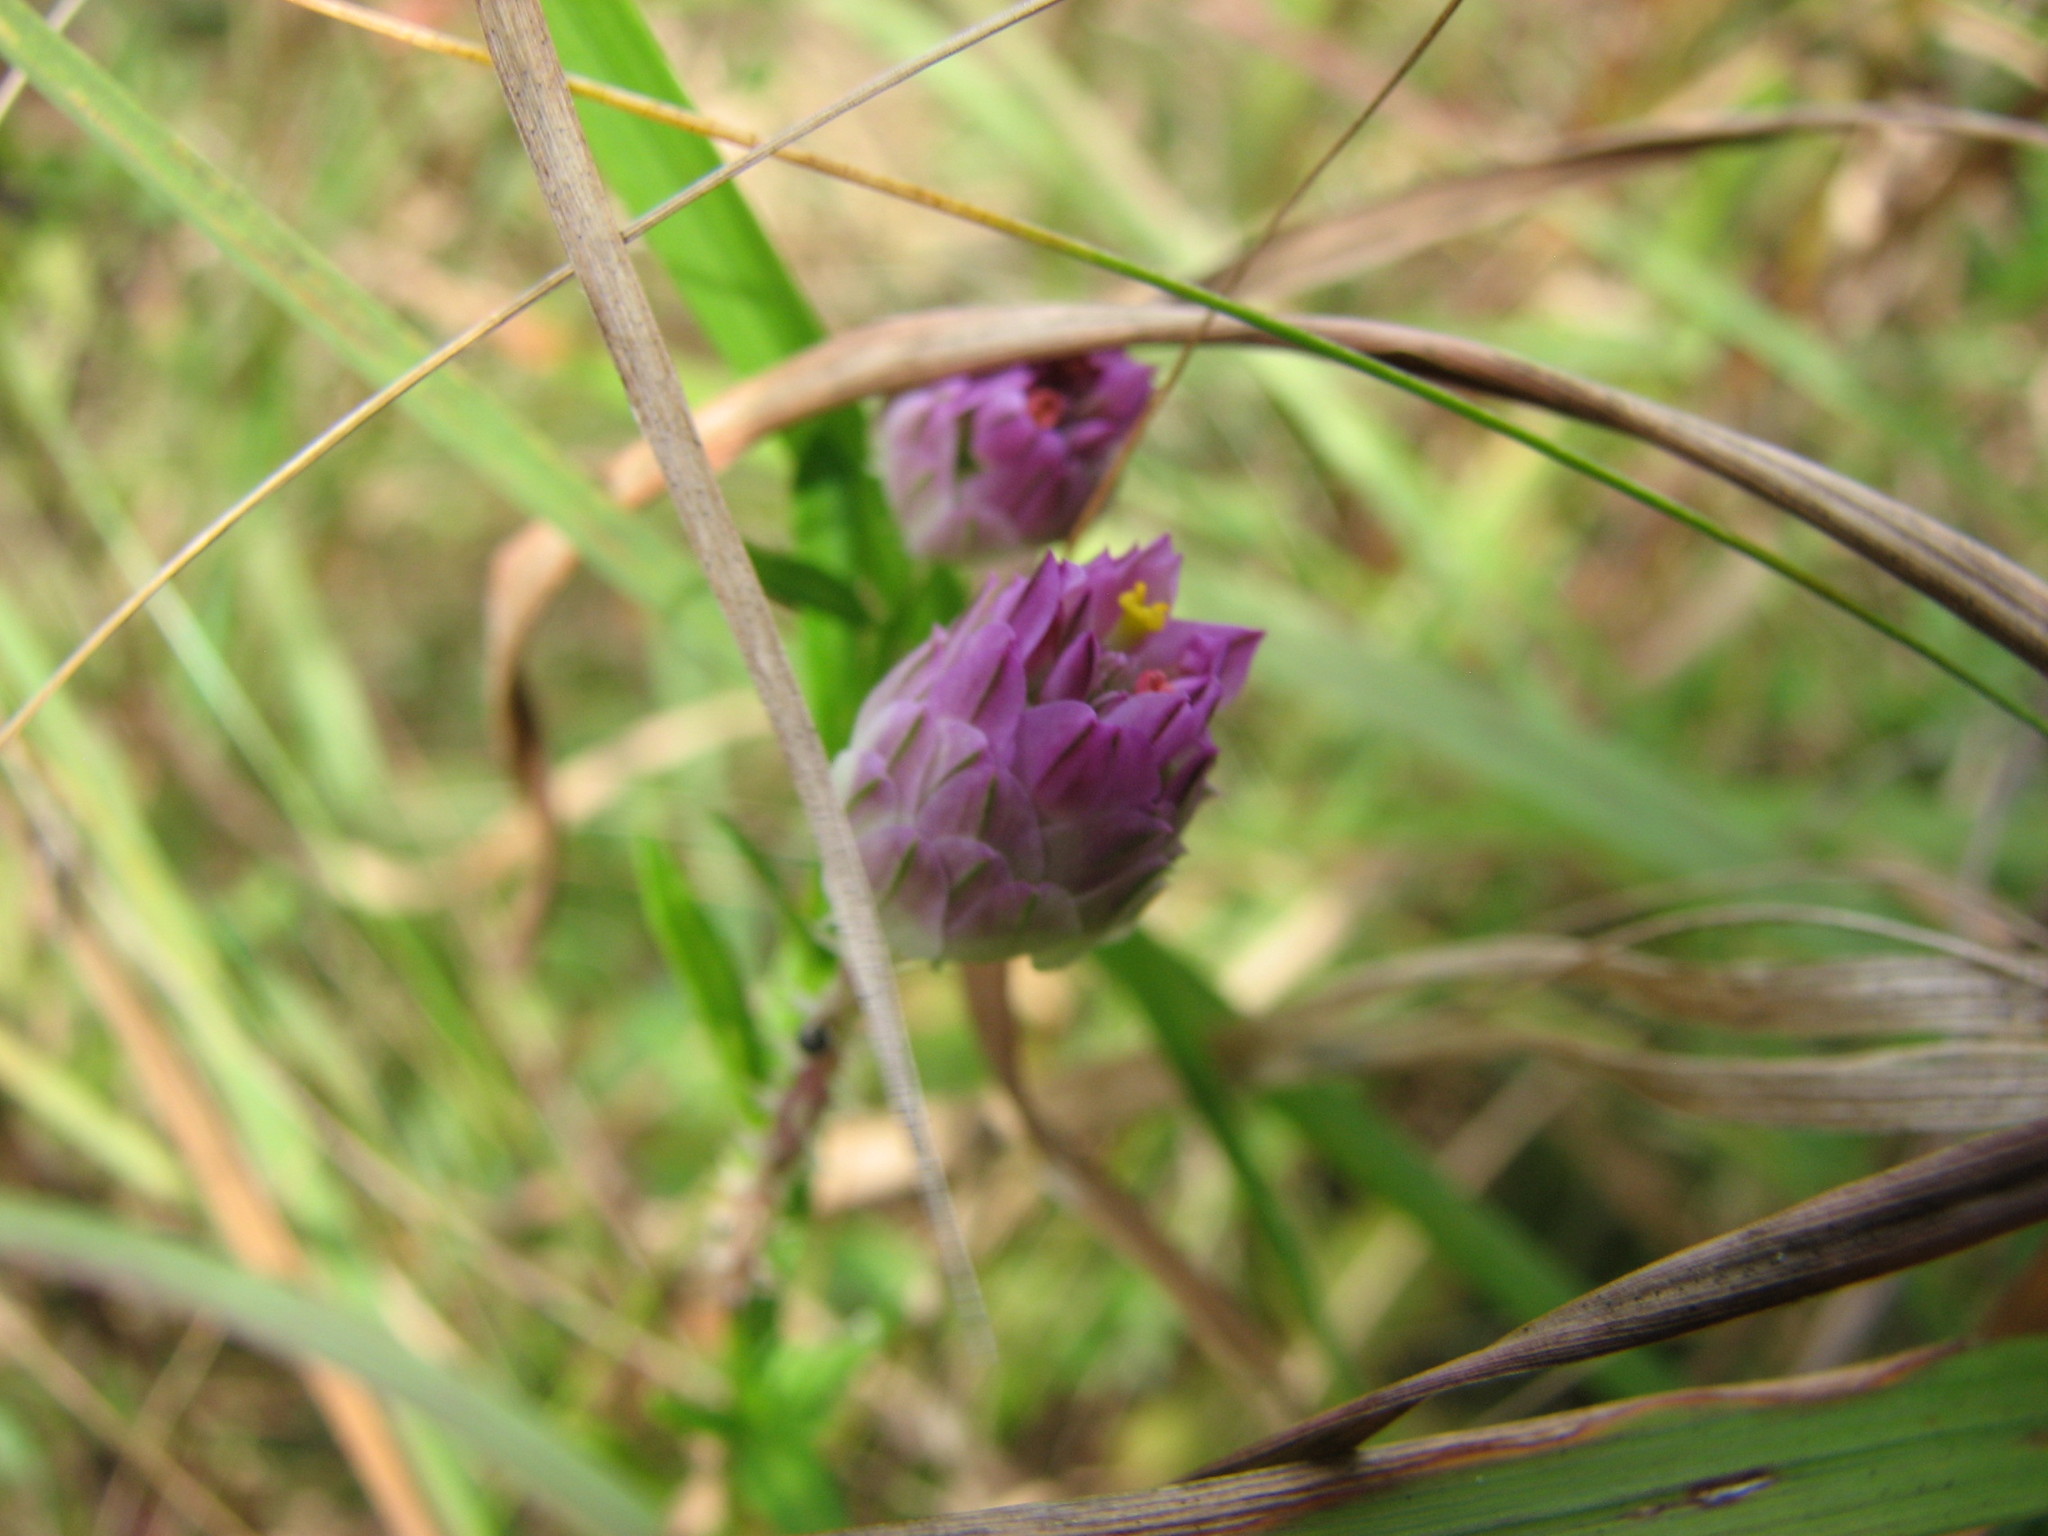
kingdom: Plantae
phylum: Tracheophyta
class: Magnoliopsida
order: Fabales
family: Polygalaceae
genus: Polygala
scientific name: Polygala sanguinea
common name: Blood milkwort
